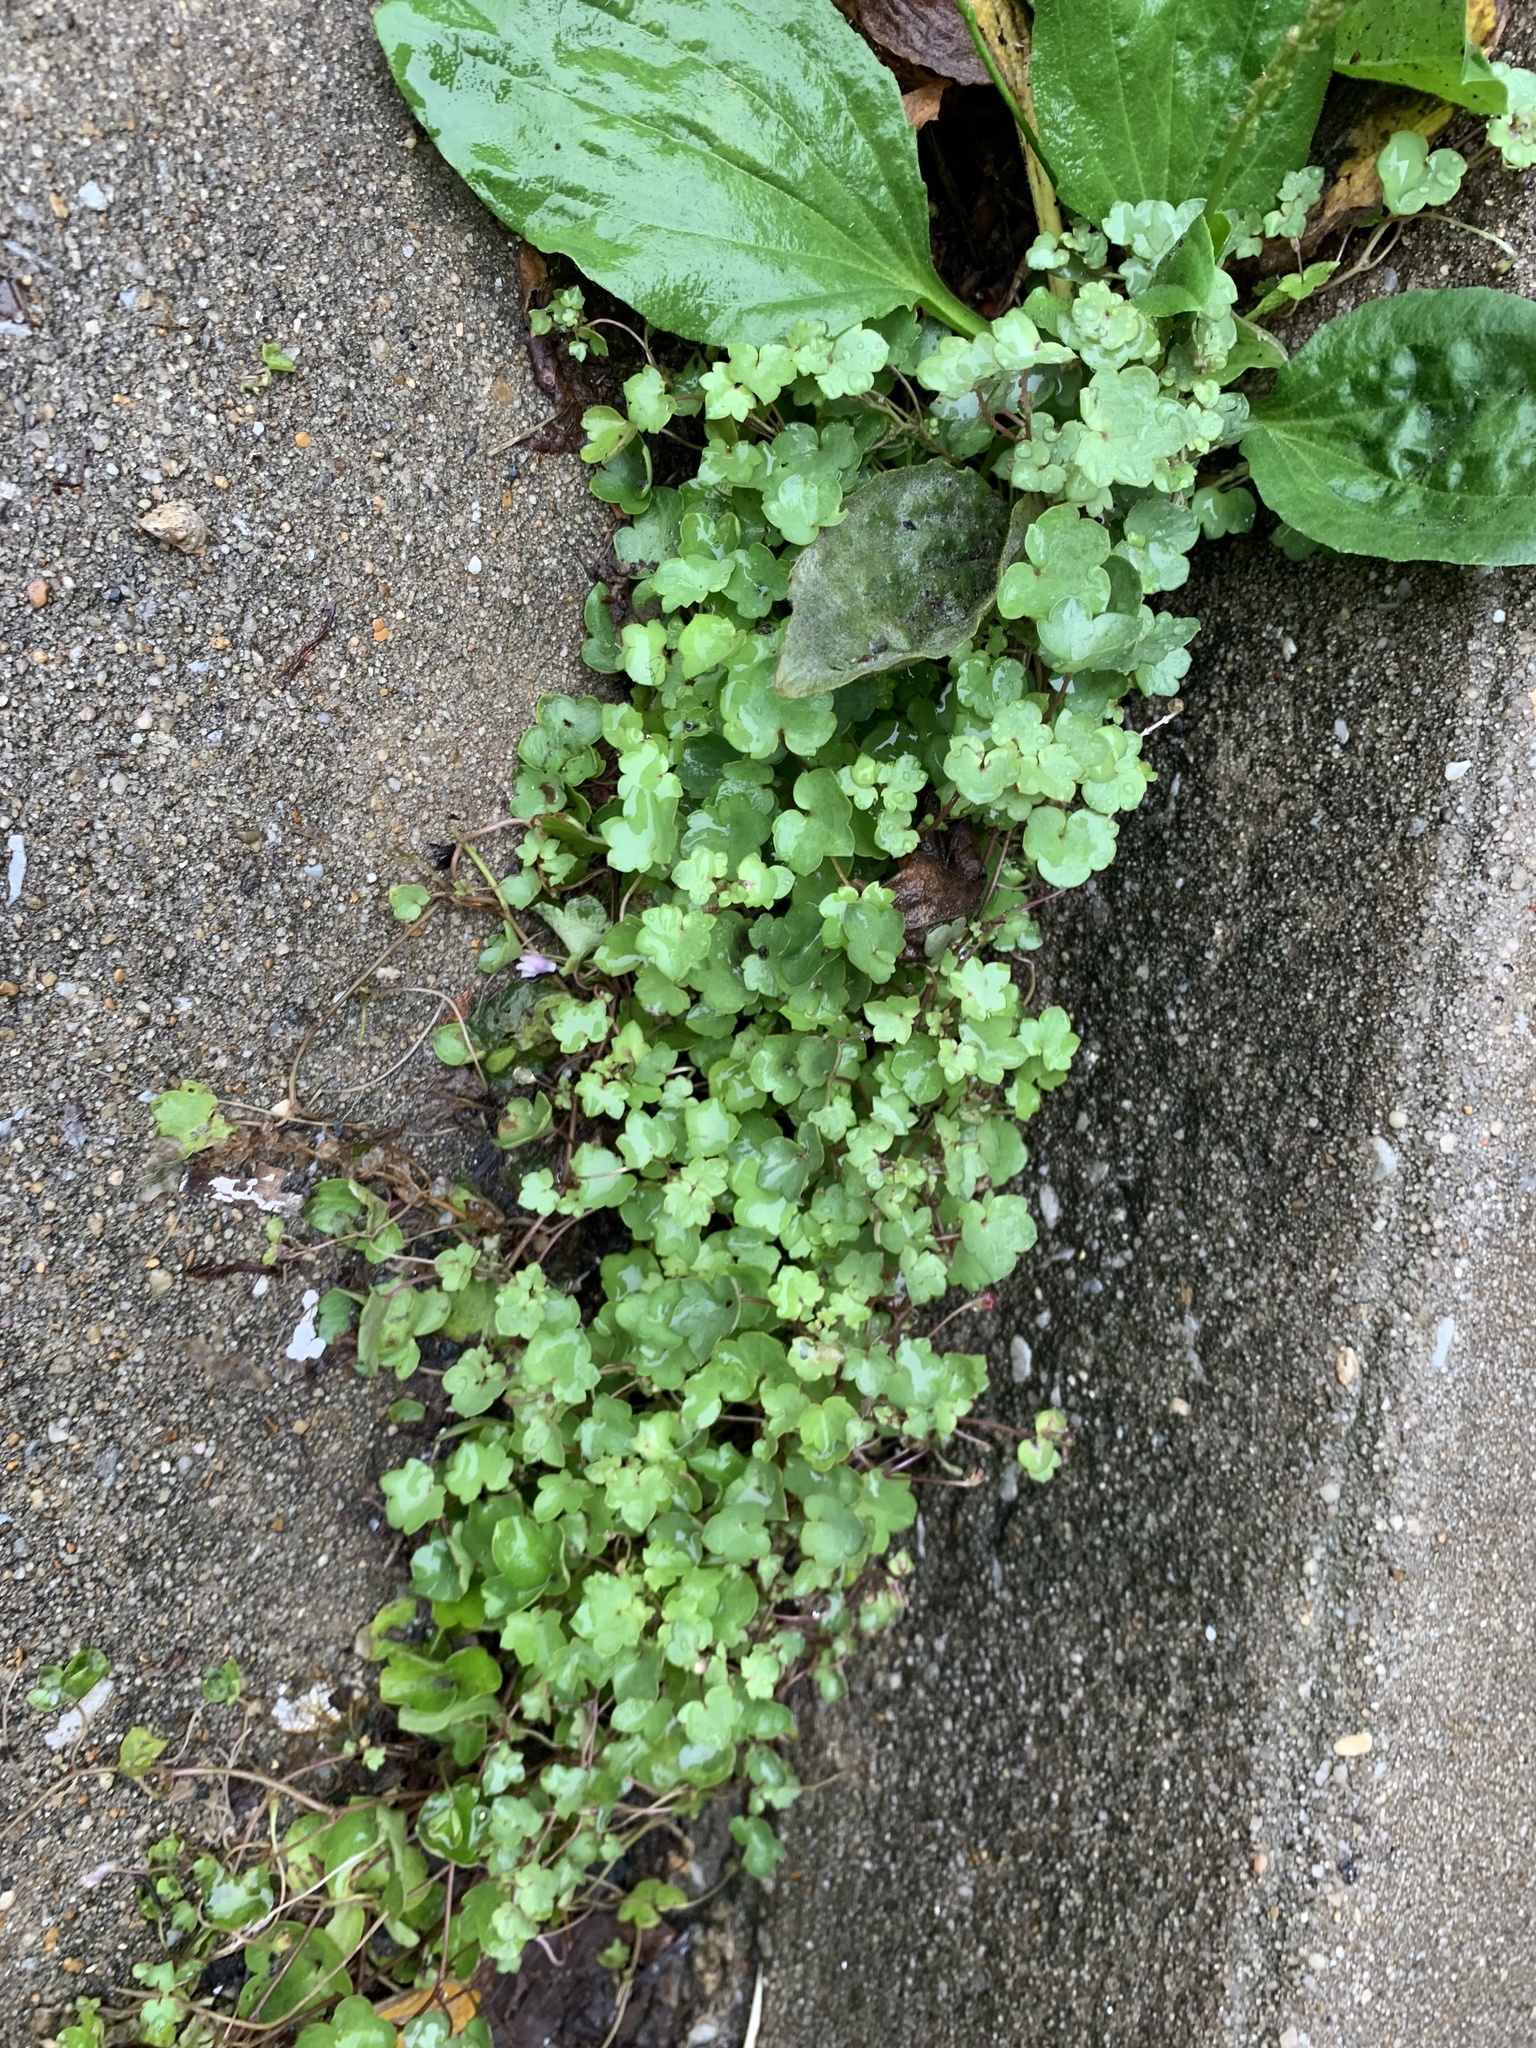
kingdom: Plantae
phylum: Tracheophyta
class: Magnoliopsida
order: Lamiales
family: Plantaginaceae
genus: Cymbalaria
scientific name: Cymbalaria muralis
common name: Ivy-leaved toadflax
